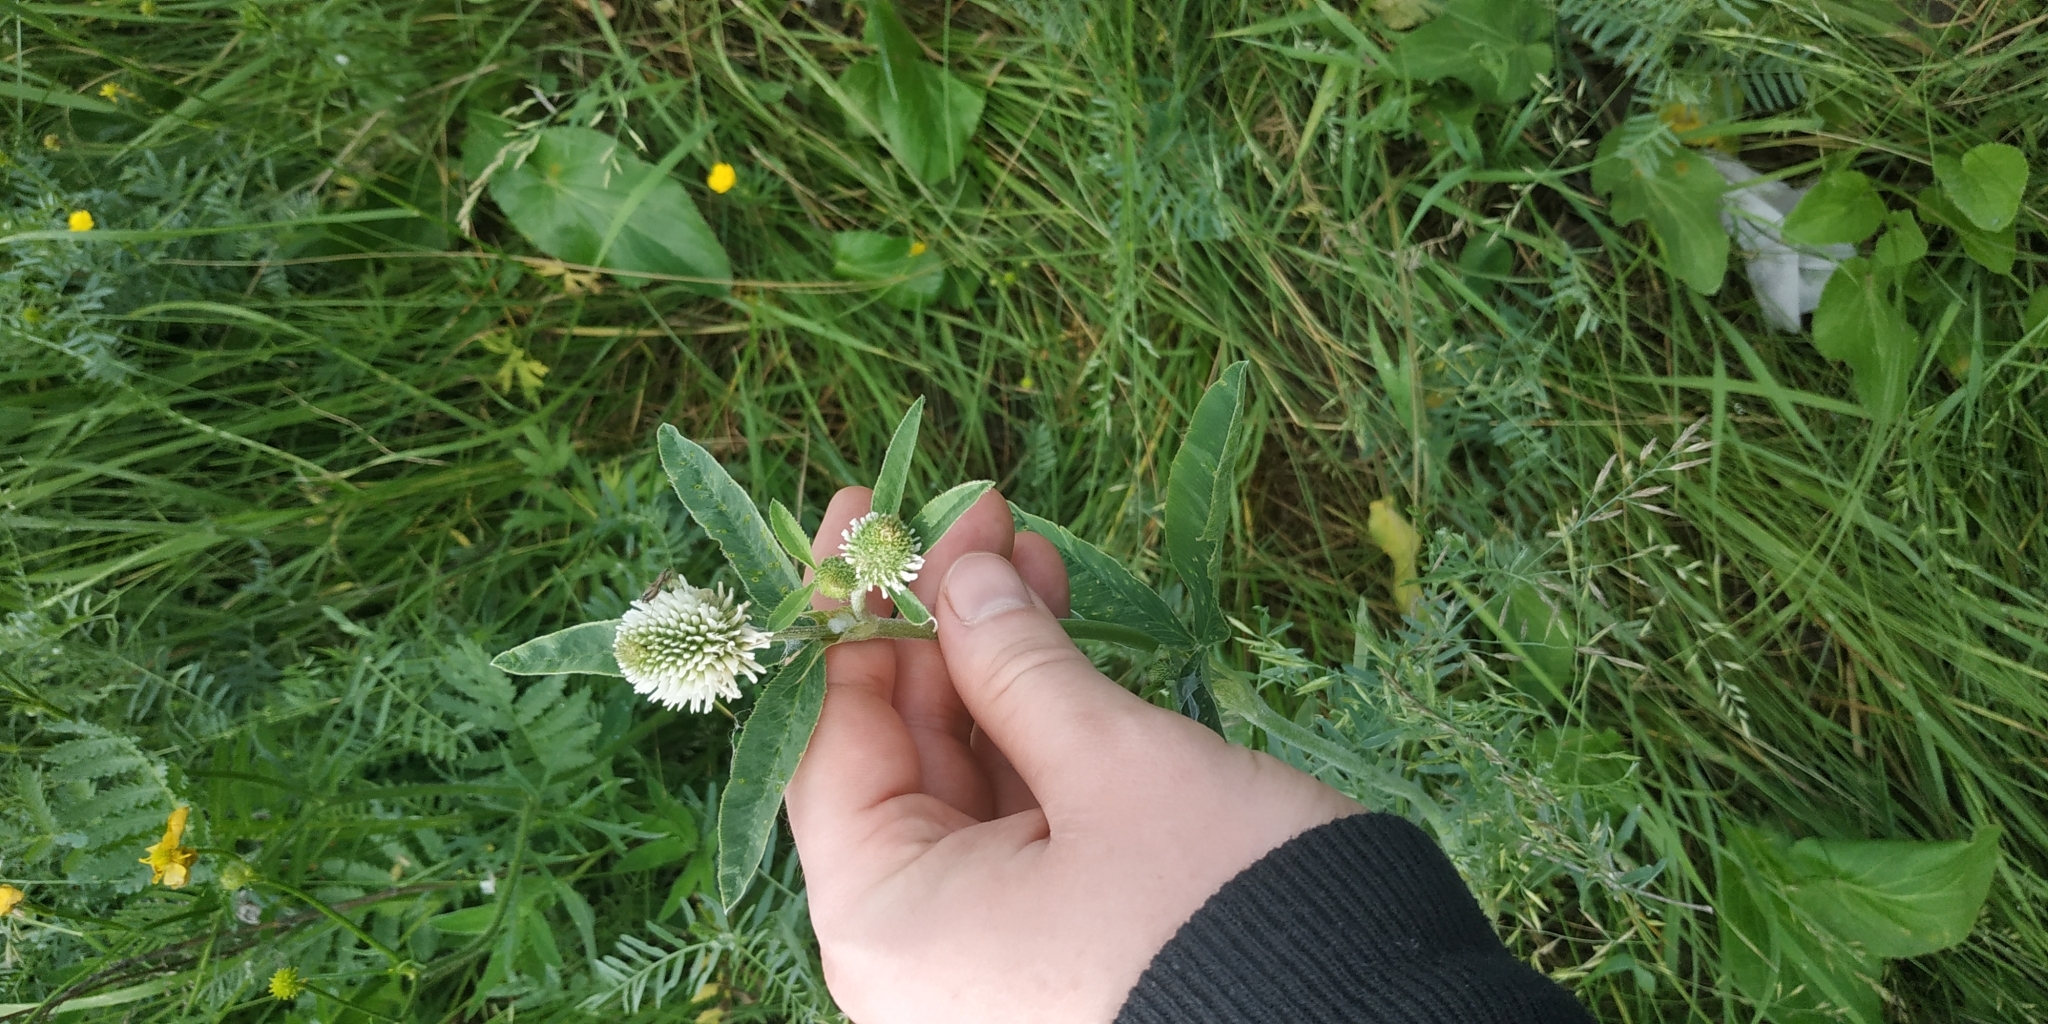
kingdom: Plantae
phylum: Tracheophyta
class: Magnoliopsida
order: Fabales
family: Fabaceae
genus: Trifolium
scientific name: Trifolium montanum
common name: Mountain clover
